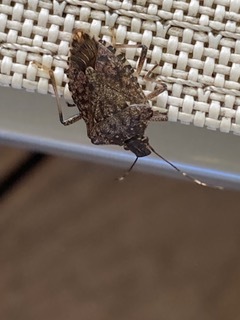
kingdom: Animalia
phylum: Arthropoda
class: Insecta
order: Hemiptera
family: Pentatomidae
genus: Halyomorpha
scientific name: Halyomorpha halys
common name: Brown marmorated stink bug
